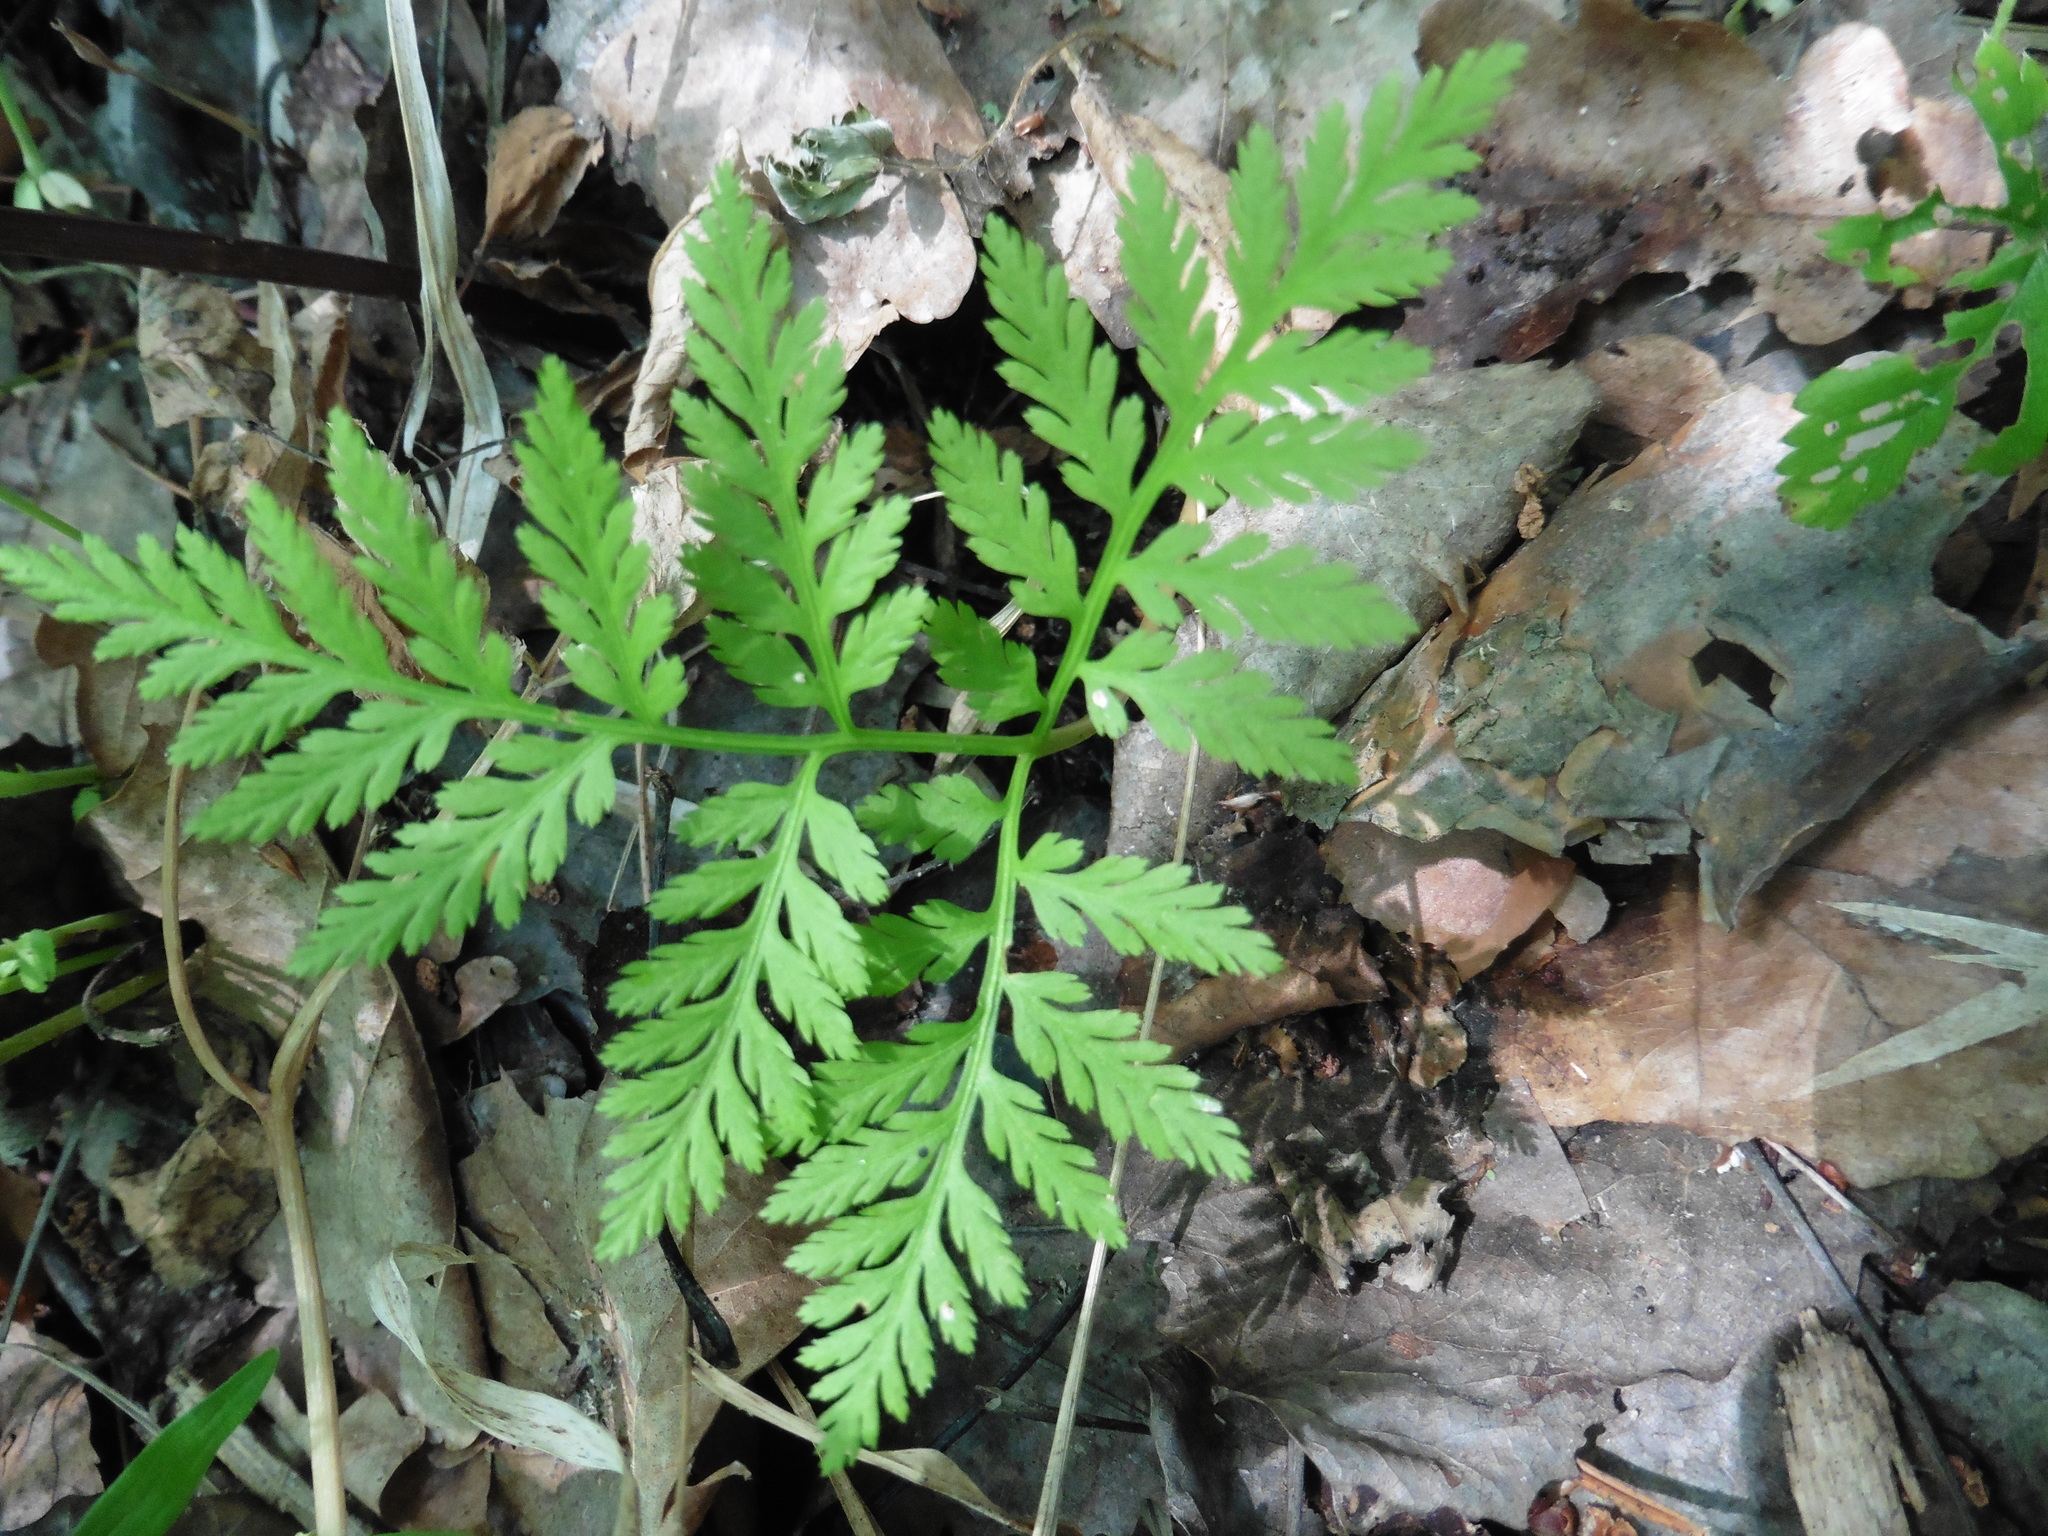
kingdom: Plantae
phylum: Tracheophyta
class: Polypodiopsida
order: Ophioglossales
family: Ophioglossaceae
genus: Botrypus
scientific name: Botrypus virginianus
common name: Common grapefern
